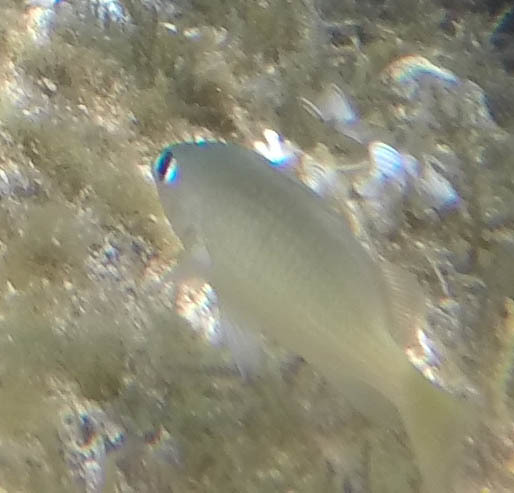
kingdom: Animalia
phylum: Chordata
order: Perciformes
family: Pomacentridae
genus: Plectroglyphidodon
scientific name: Plectroglyphidodon imparipennis
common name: Brighteye damsel
